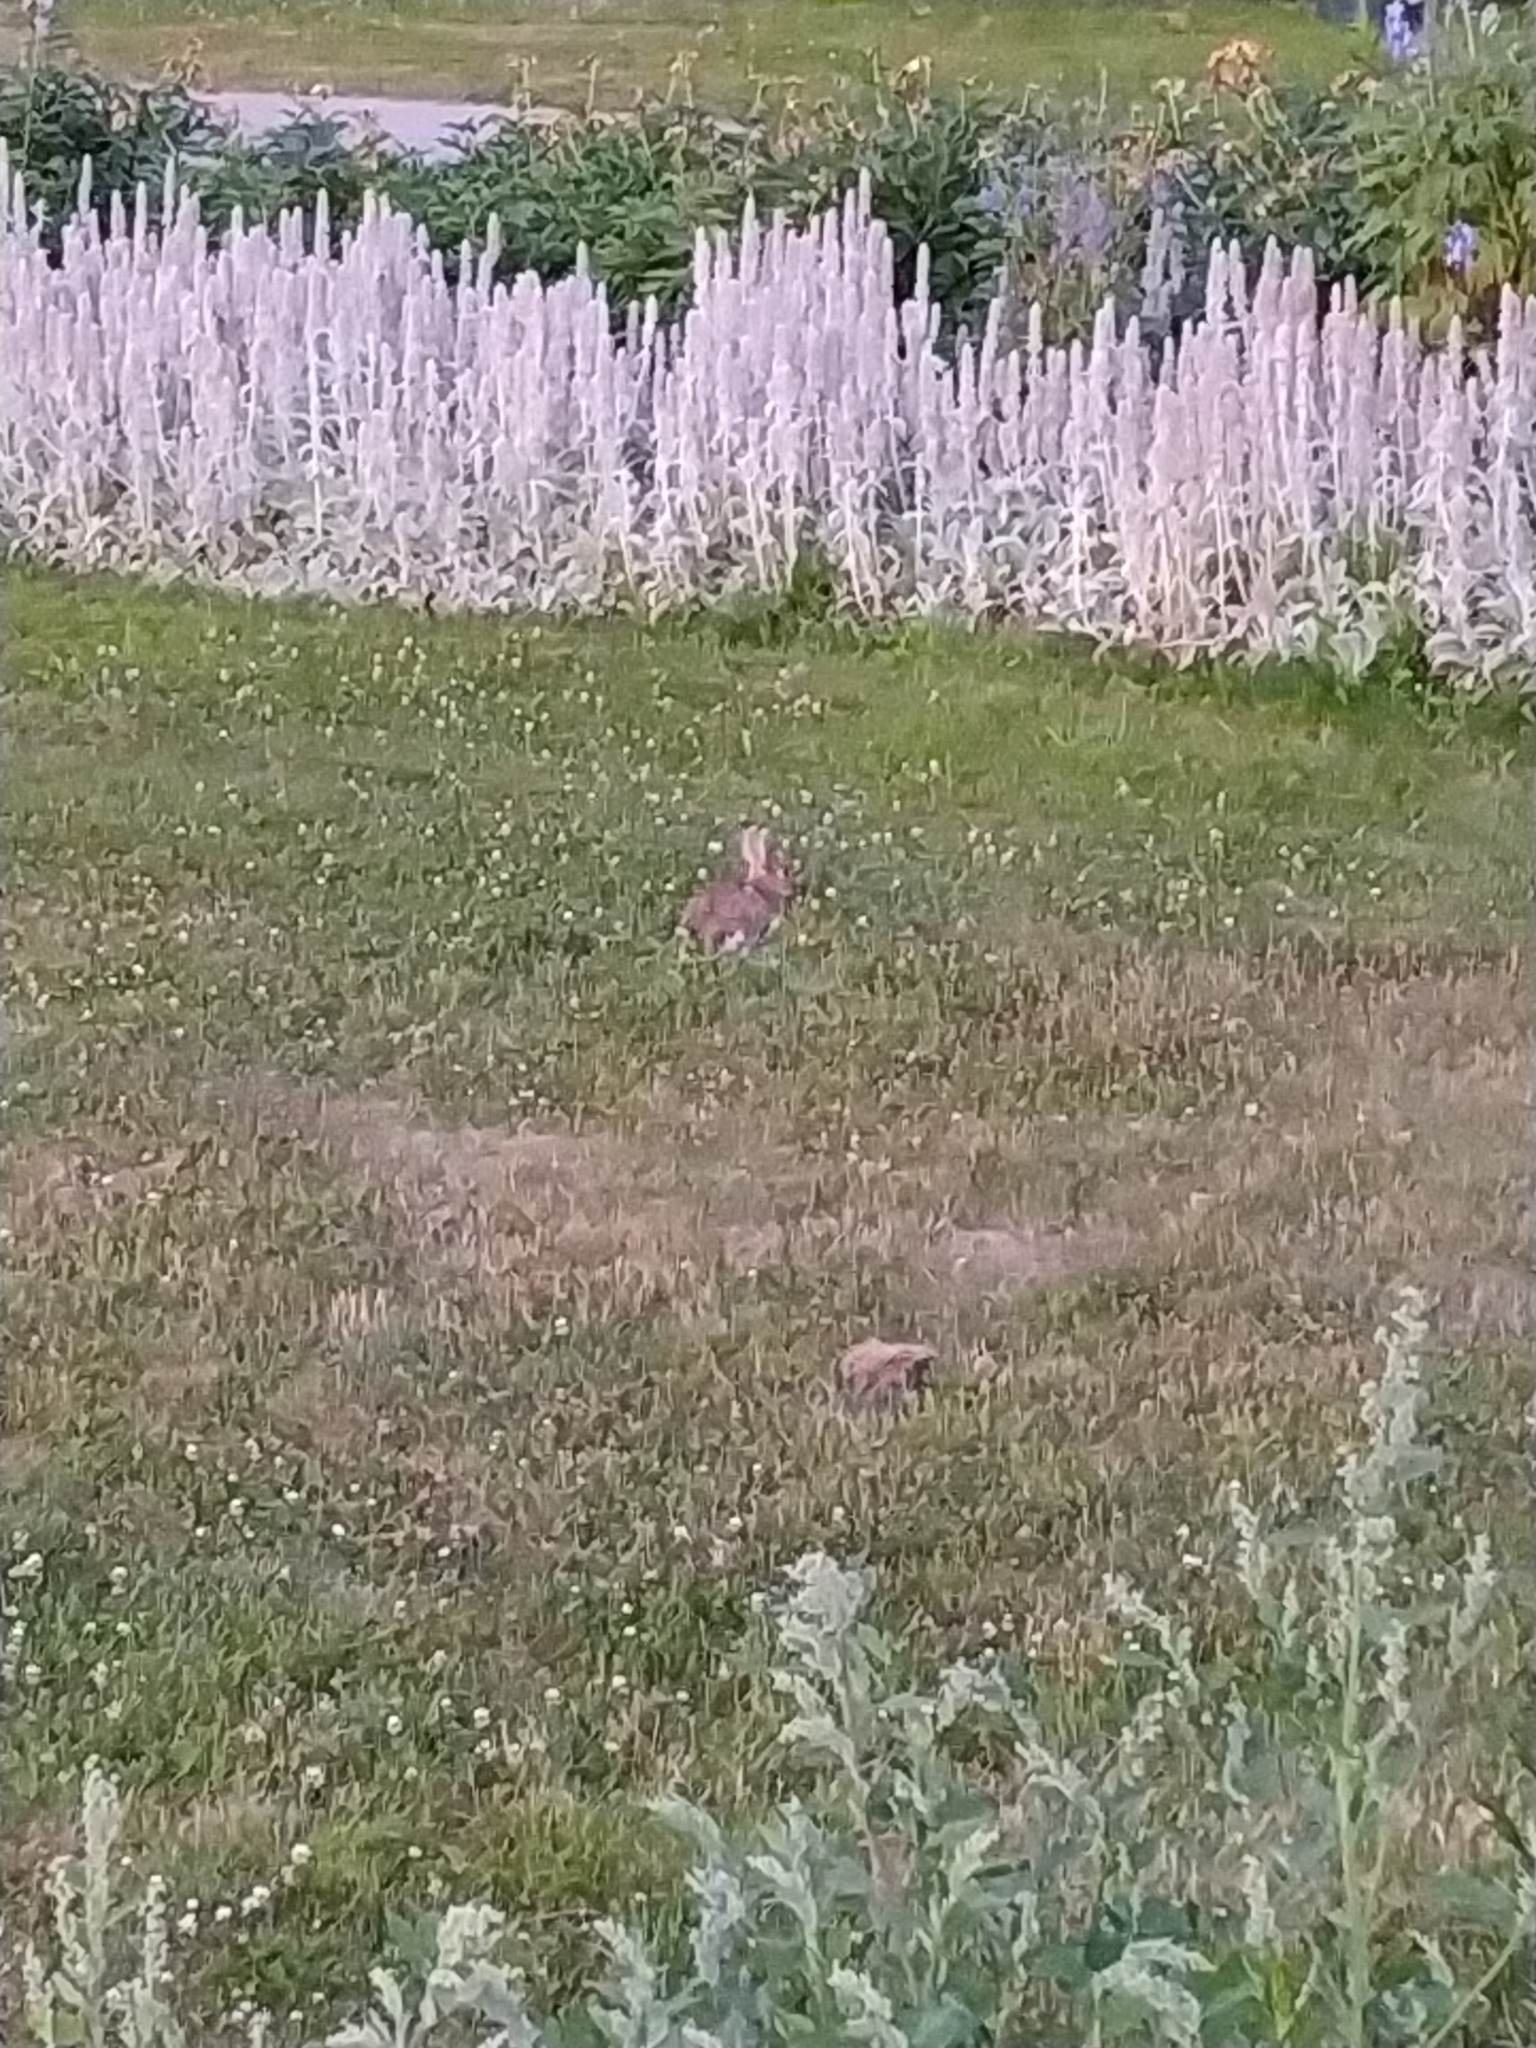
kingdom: Animalia
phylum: Chordata
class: Mammalia
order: Lagomorpha
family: Leporidae
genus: Oryctolagus
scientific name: Oryctolagus cuniculus
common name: European rabbit
